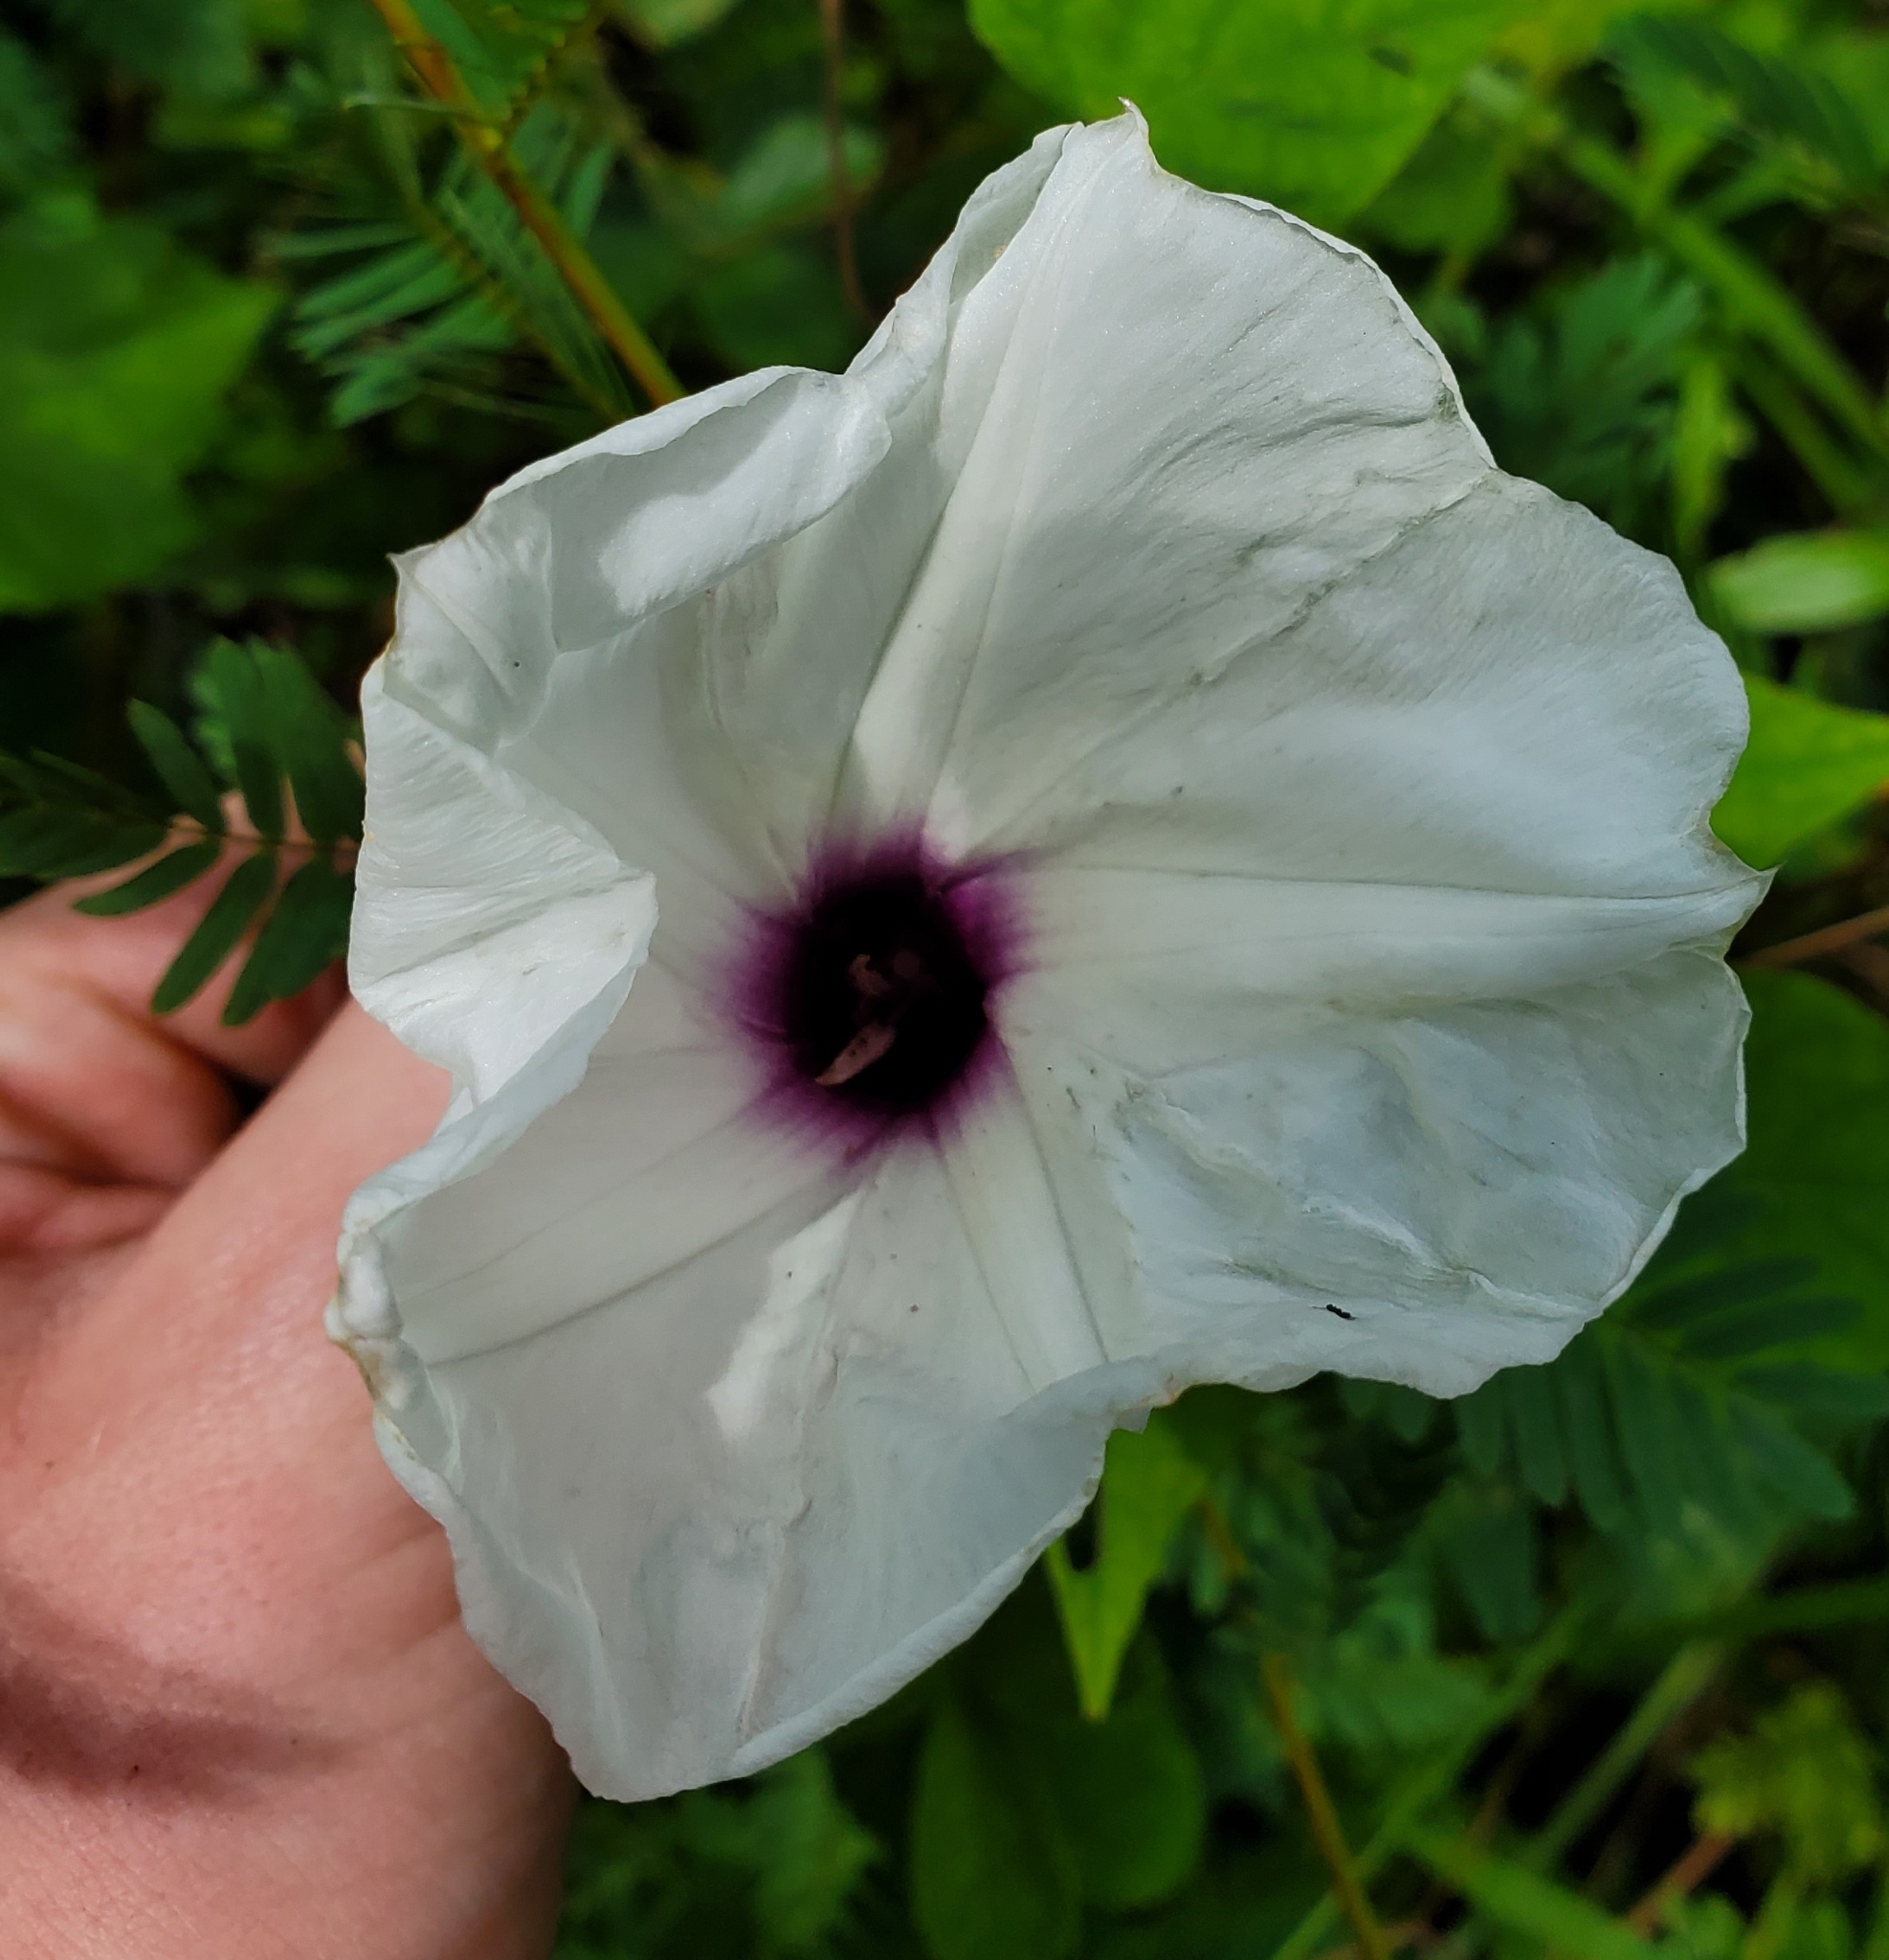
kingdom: Plantae
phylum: Tracheophyta
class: Magnoliopsida
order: Solanales
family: Convolvulaceae
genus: Ipomoea
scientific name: Ipomoea pandurata
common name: Man-of-the-earth
